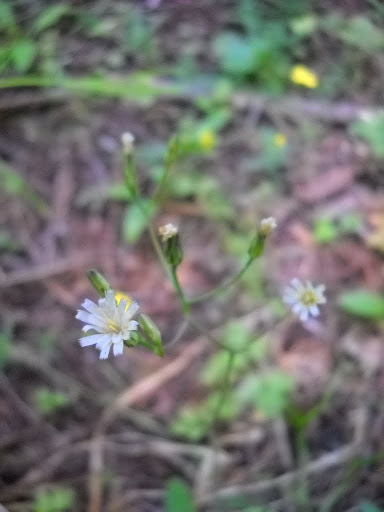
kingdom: Plantae
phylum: Tracheophyta
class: Magnoliopsida
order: Asterales
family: Asteraceae
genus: Hieracium
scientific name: Hieracium albiflorum
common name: White hawkweed
